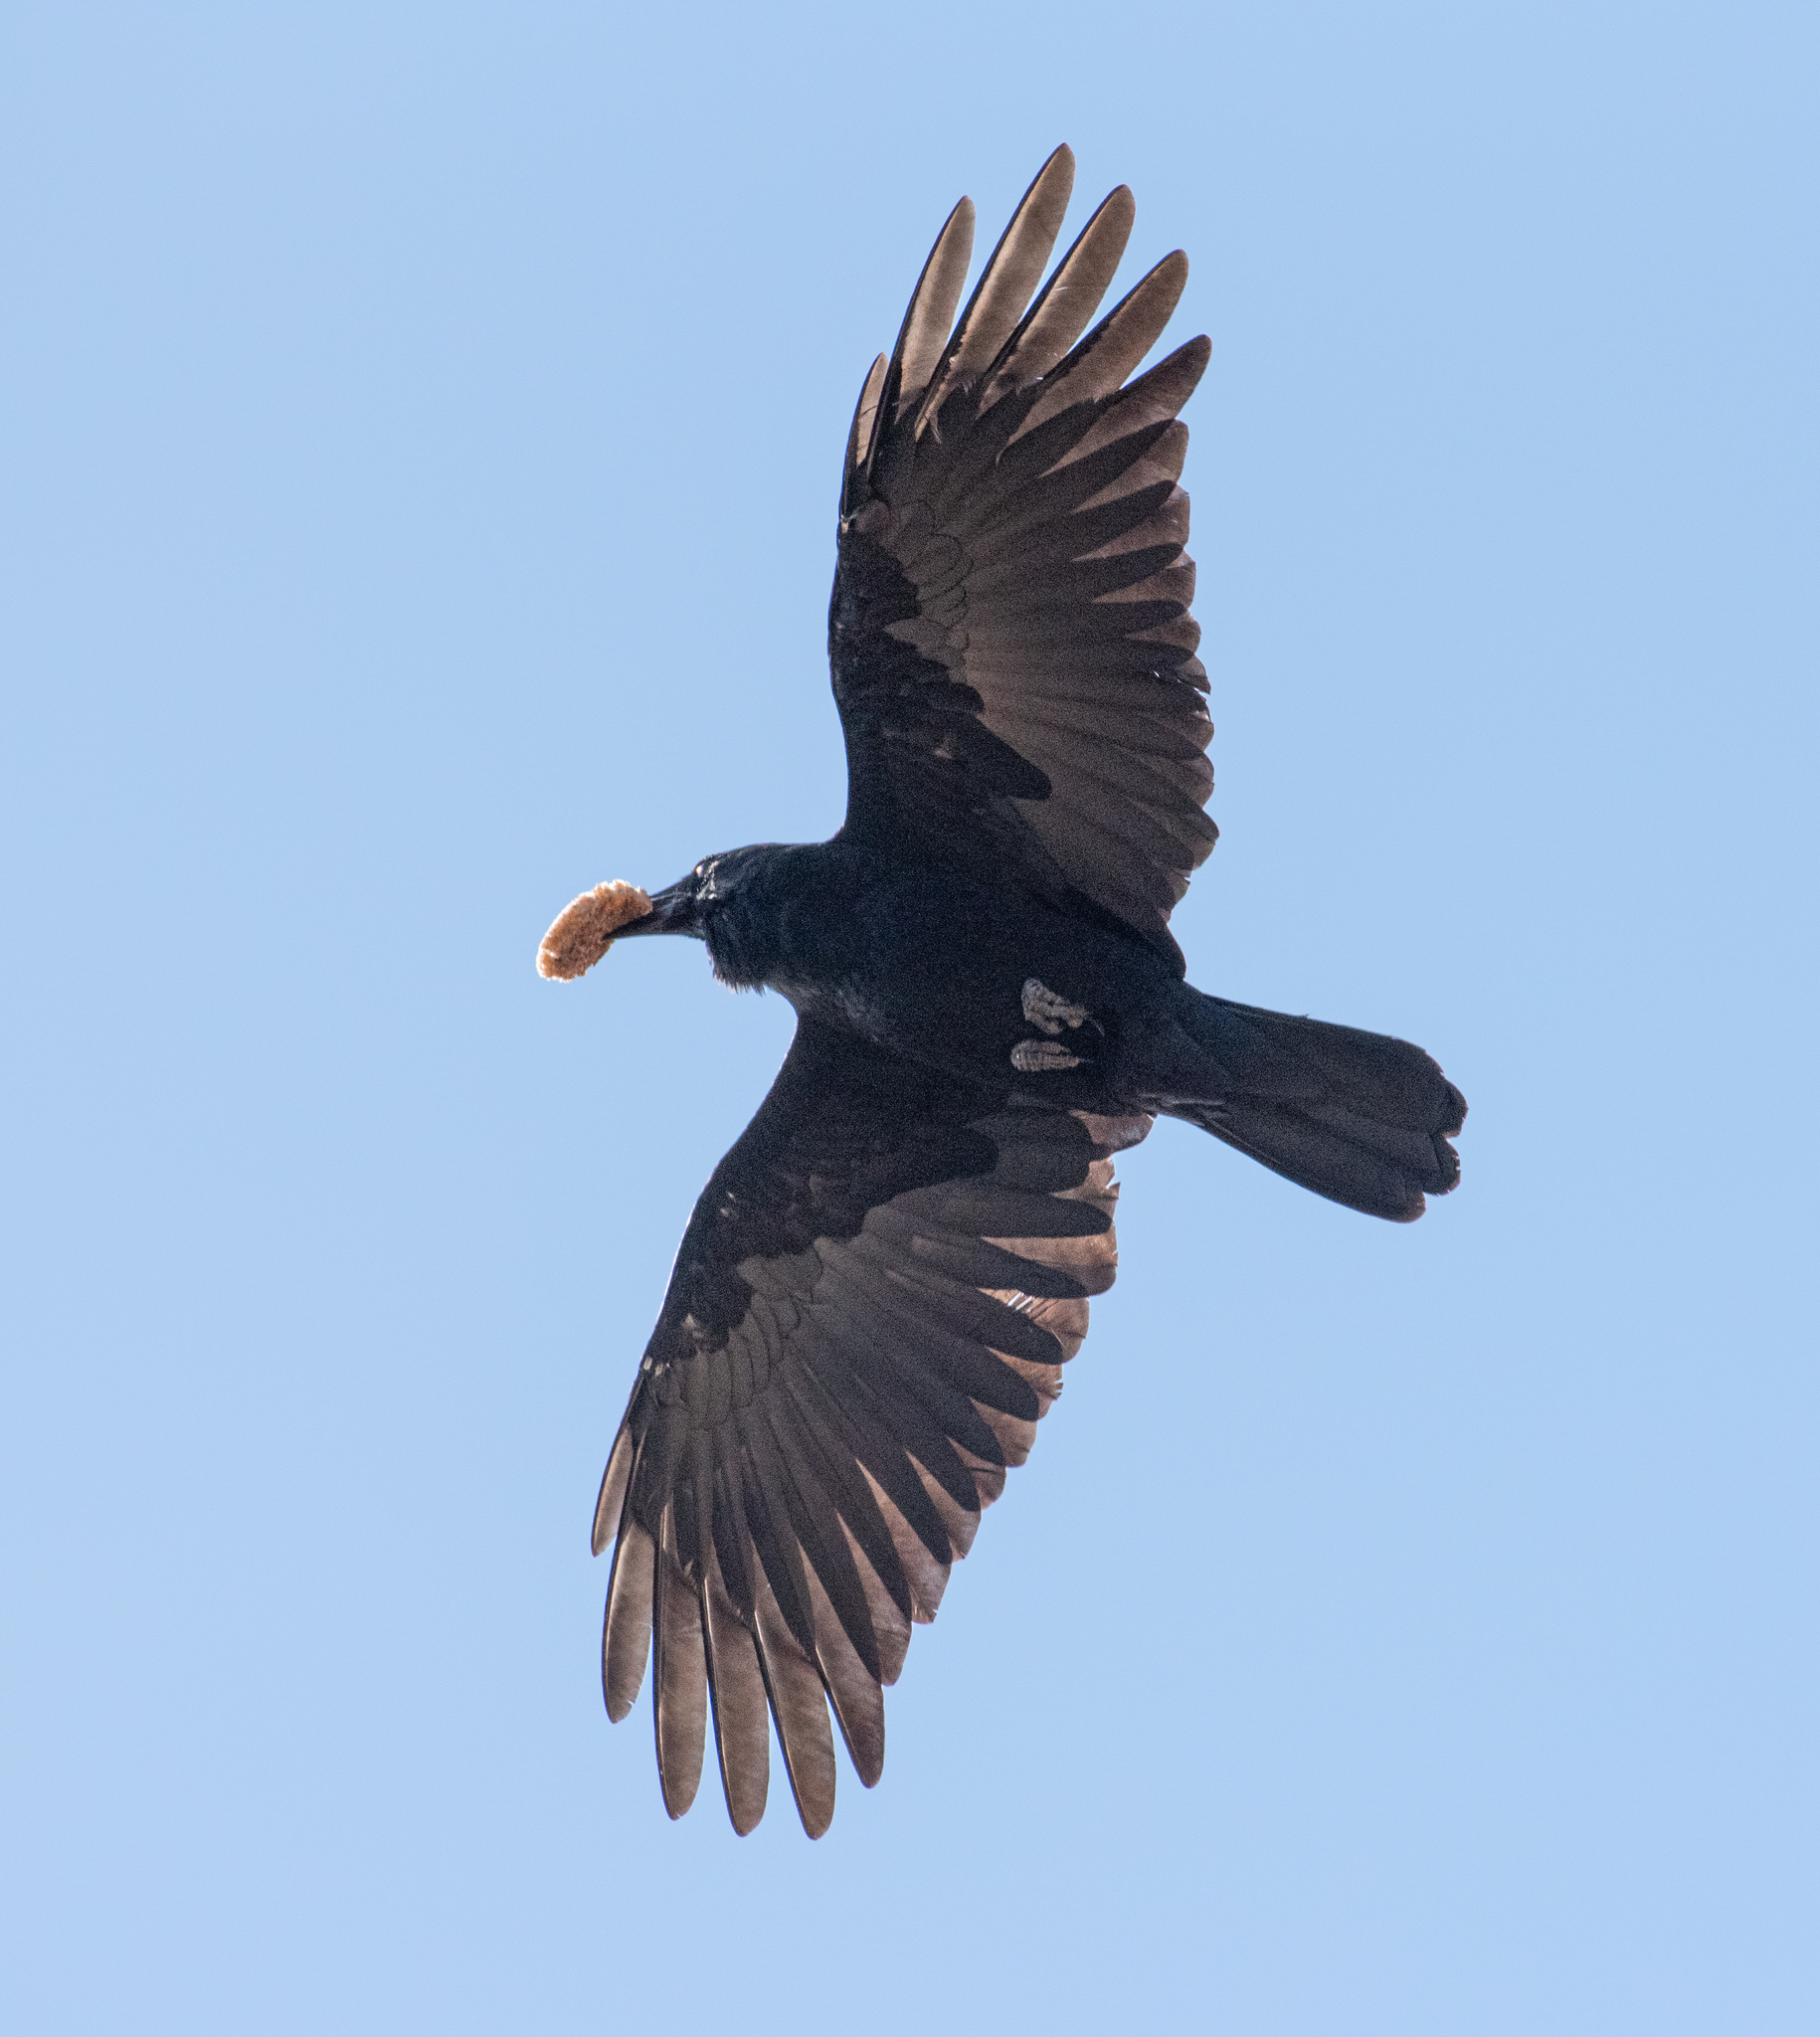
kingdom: Animalia
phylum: Chordata
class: Aves
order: Passeriformes
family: Corvidae
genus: Corvus
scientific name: Corvus brachyrhynchos
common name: American crow
